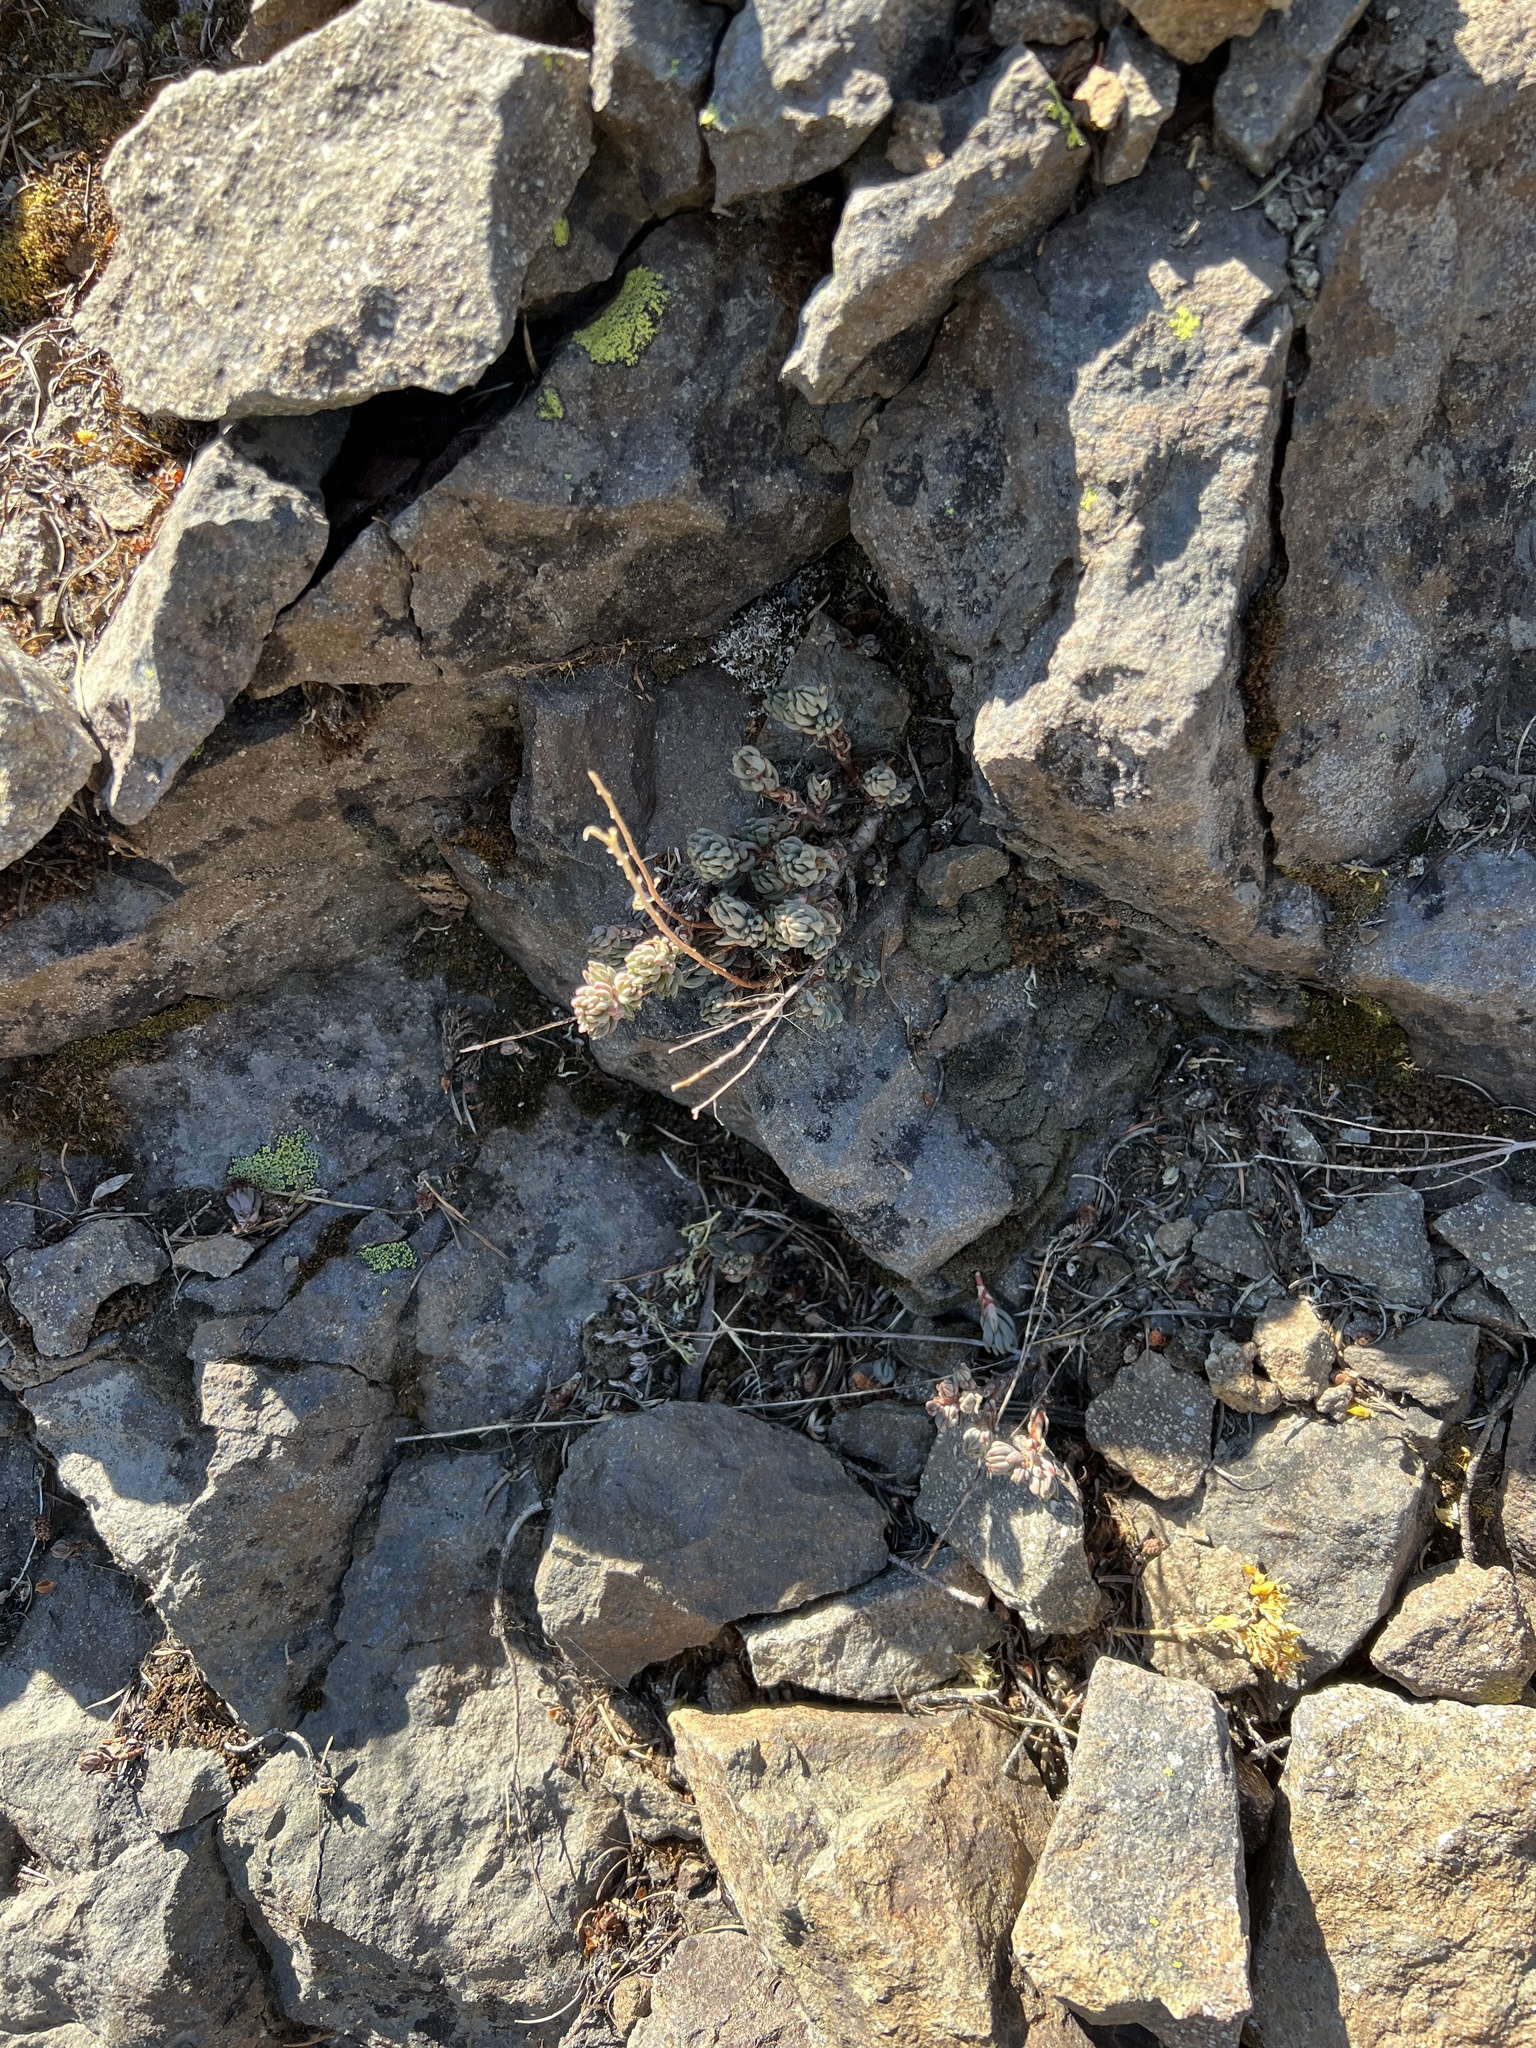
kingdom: Plantae
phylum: Tracheophyta
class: Magnoliopsida
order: Saxifragales
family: Crassulaceae
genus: Sedum
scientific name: Sedum lanceolatum
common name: Common stonecrop
